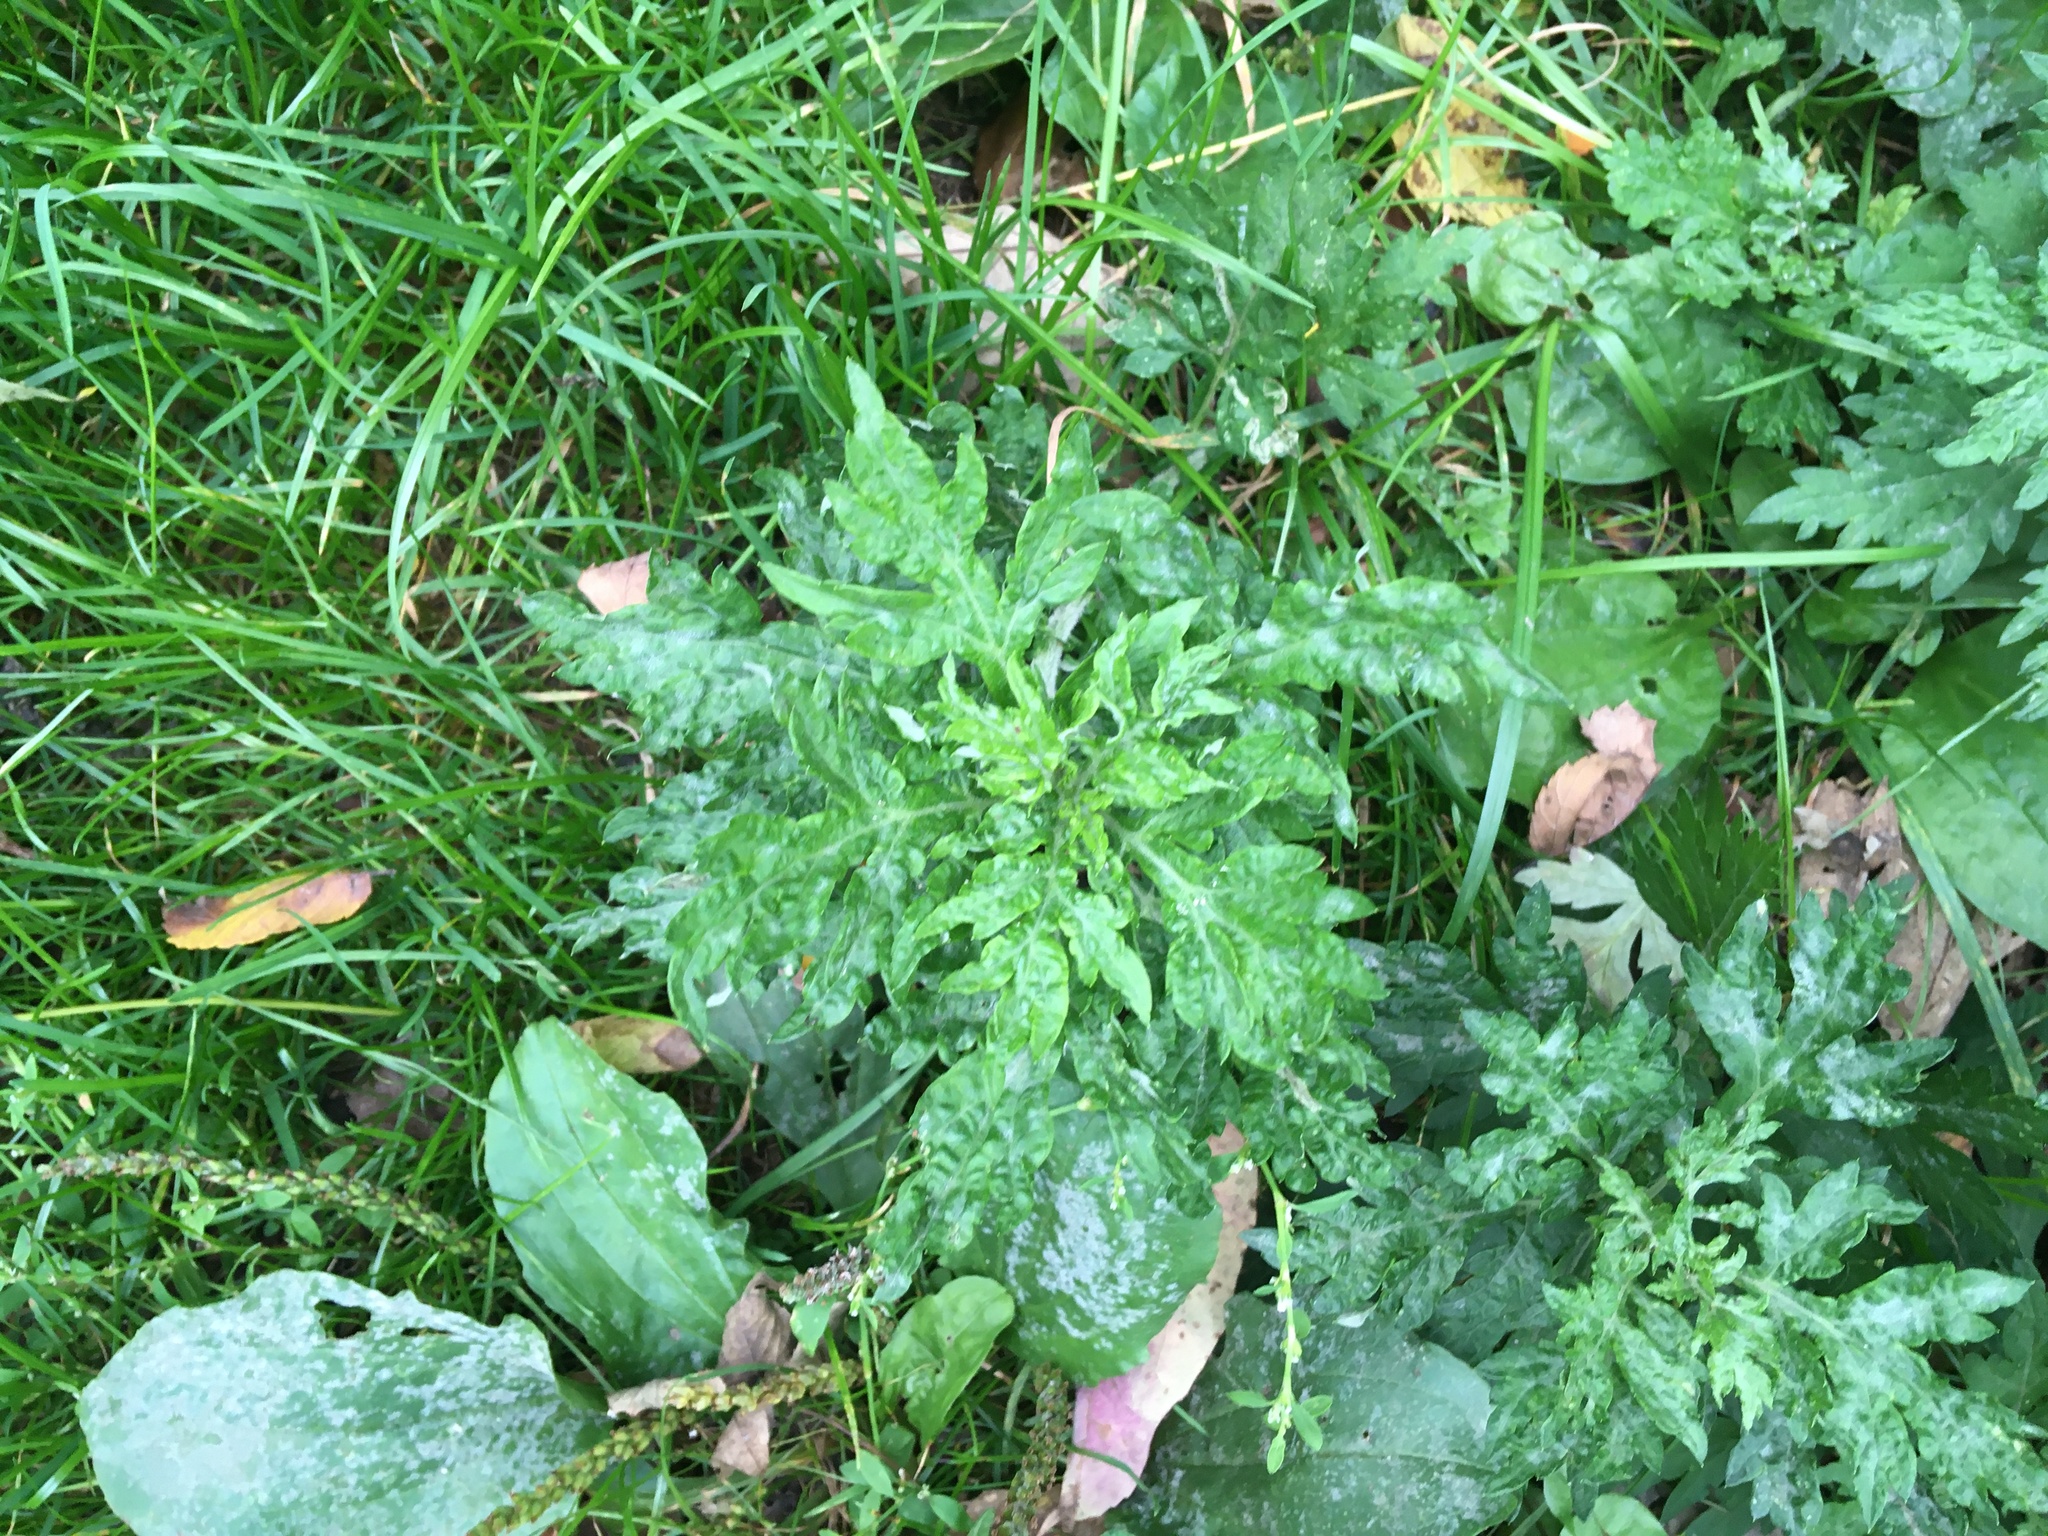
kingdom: Plantae
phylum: Tracheophyta
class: Magnoliopsida
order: Asterales
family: Asteraceae
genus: Artemisia
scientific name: Artemisia vulgaris
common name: Mugwort
